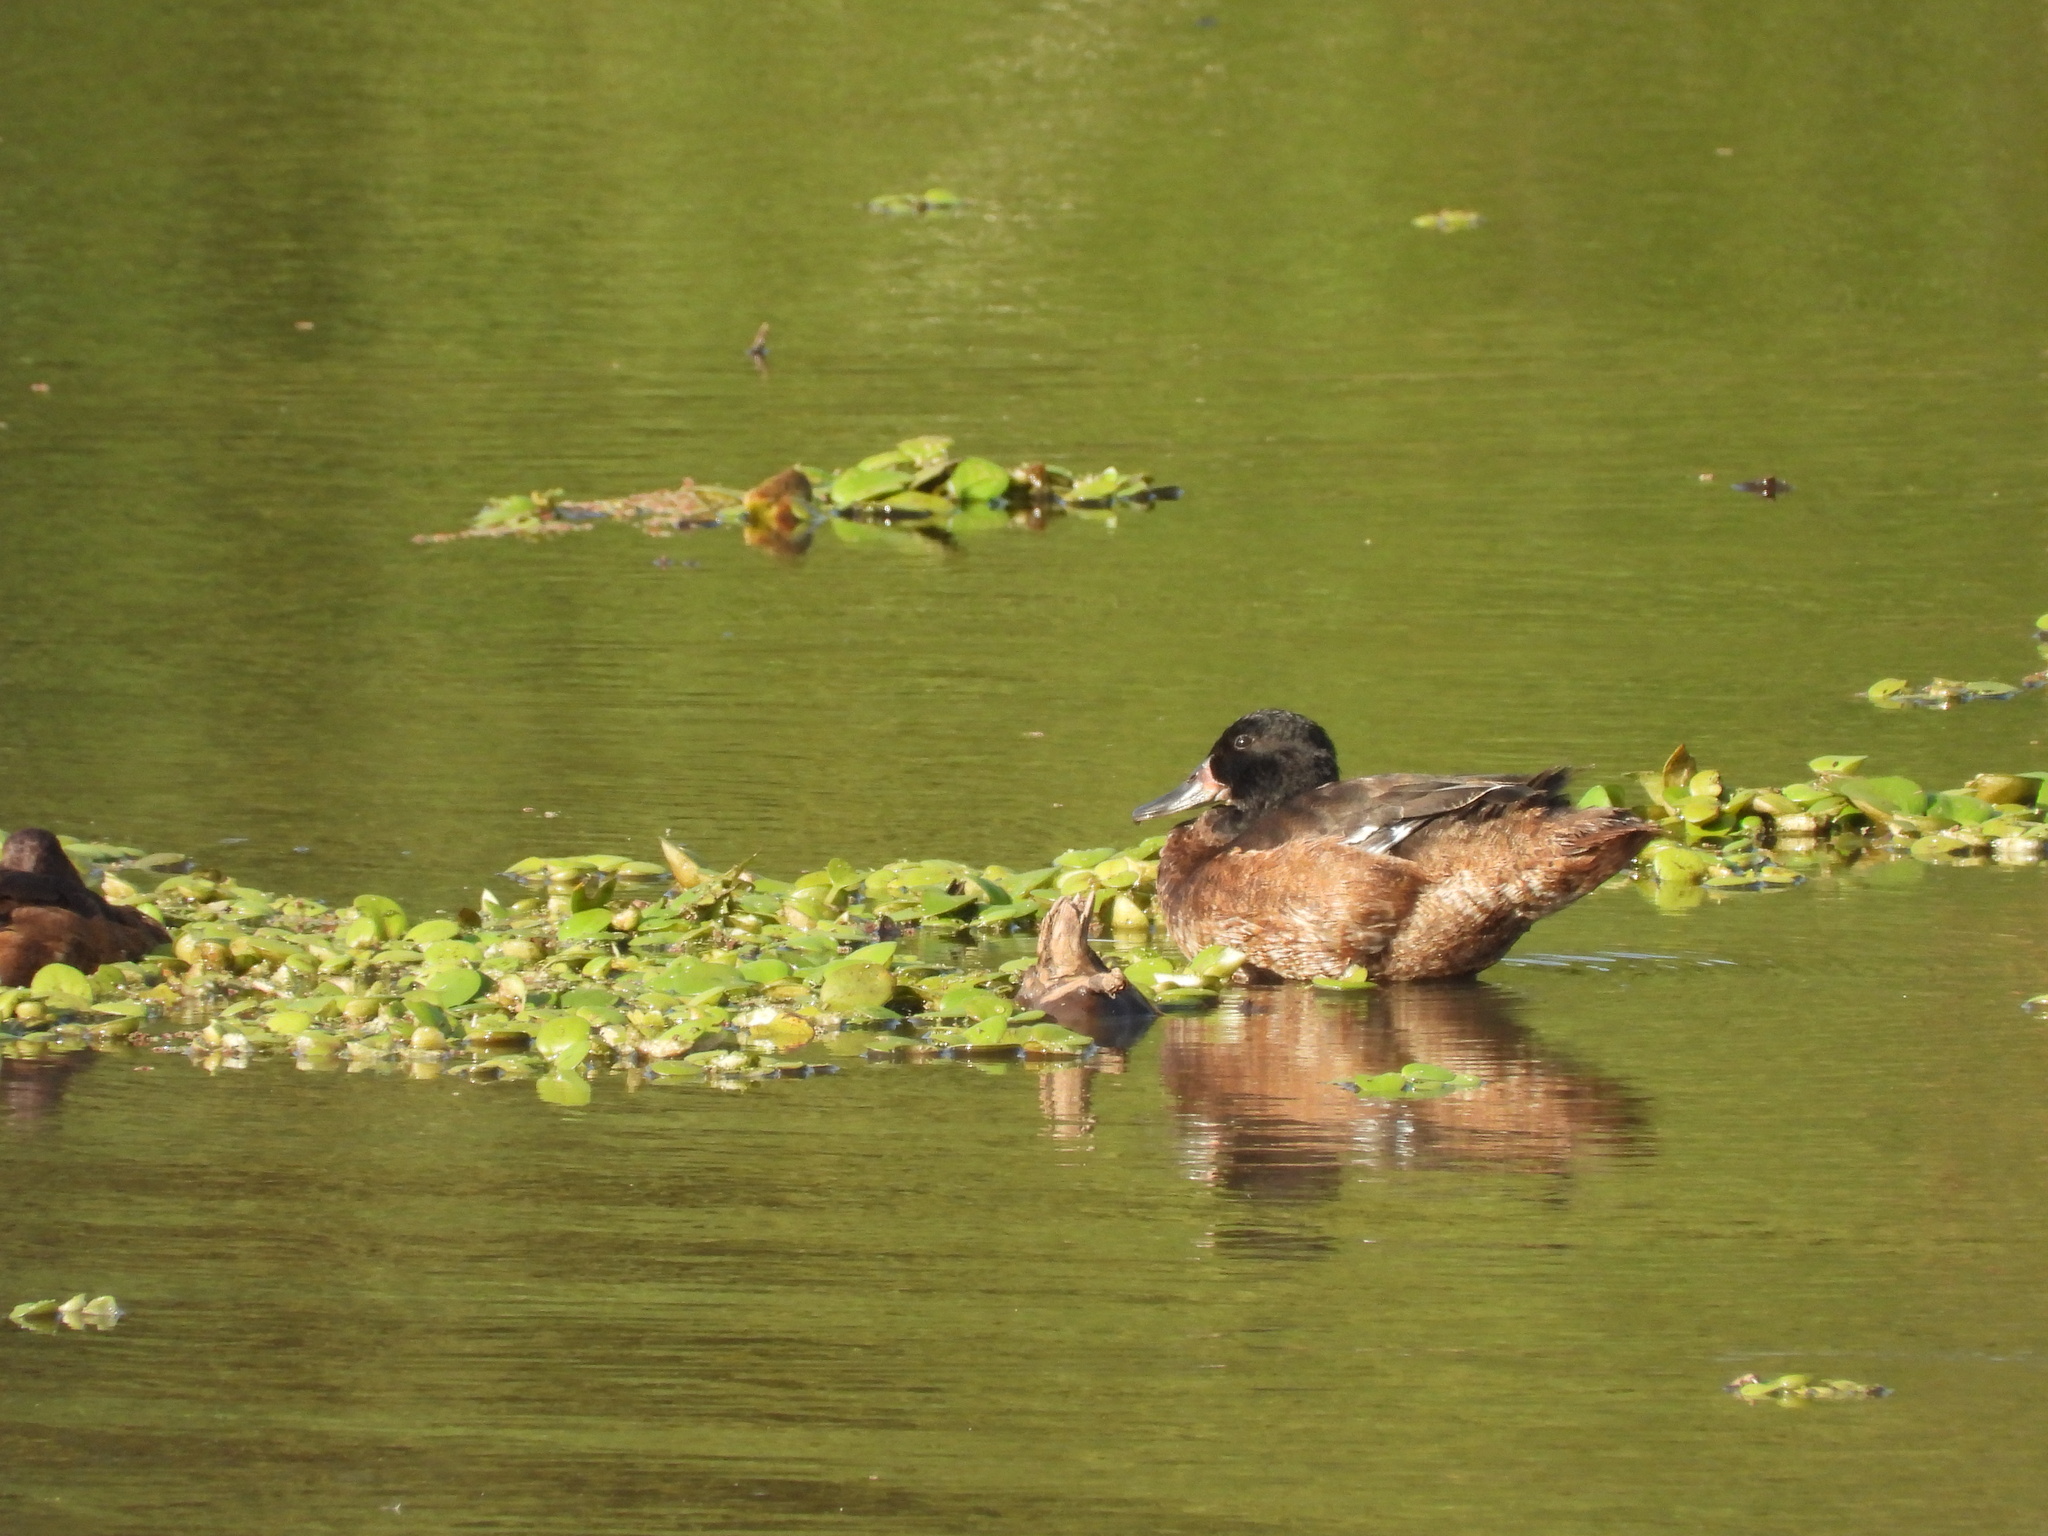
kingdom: Animalia
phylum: Chordata
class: Aves
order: Anseriformes
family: Anatidae
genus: Heteronetta
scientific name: Heteronetta atricapilla
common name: Black-headed duck
